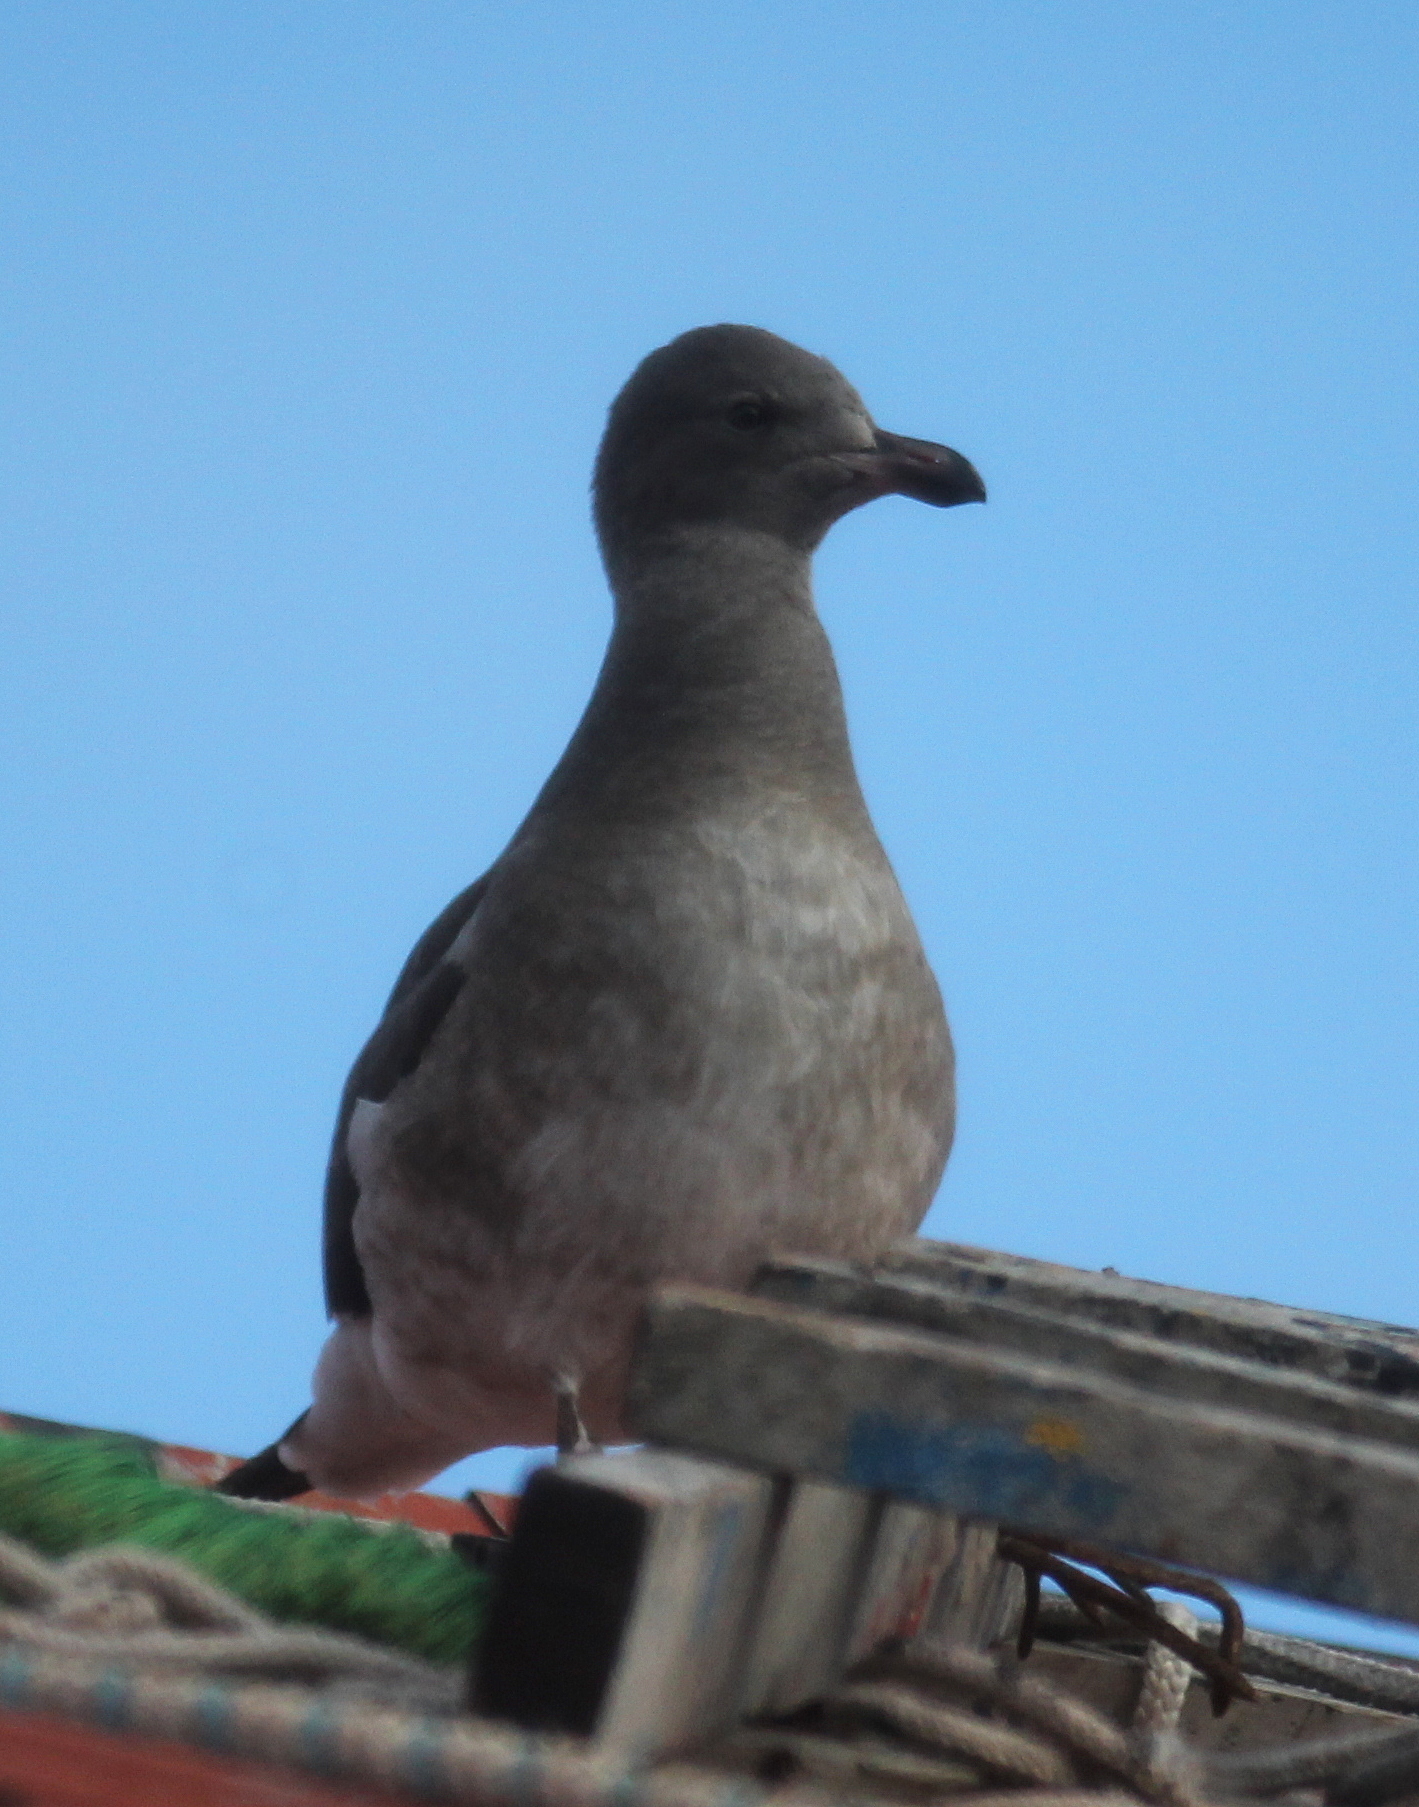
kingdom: Animalia
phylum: Chordata
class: Aves
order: Charadriiformes
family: Laridae
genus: Leucophaeus
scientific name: Leucophaeus scoresbii
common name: Dolphin gull
